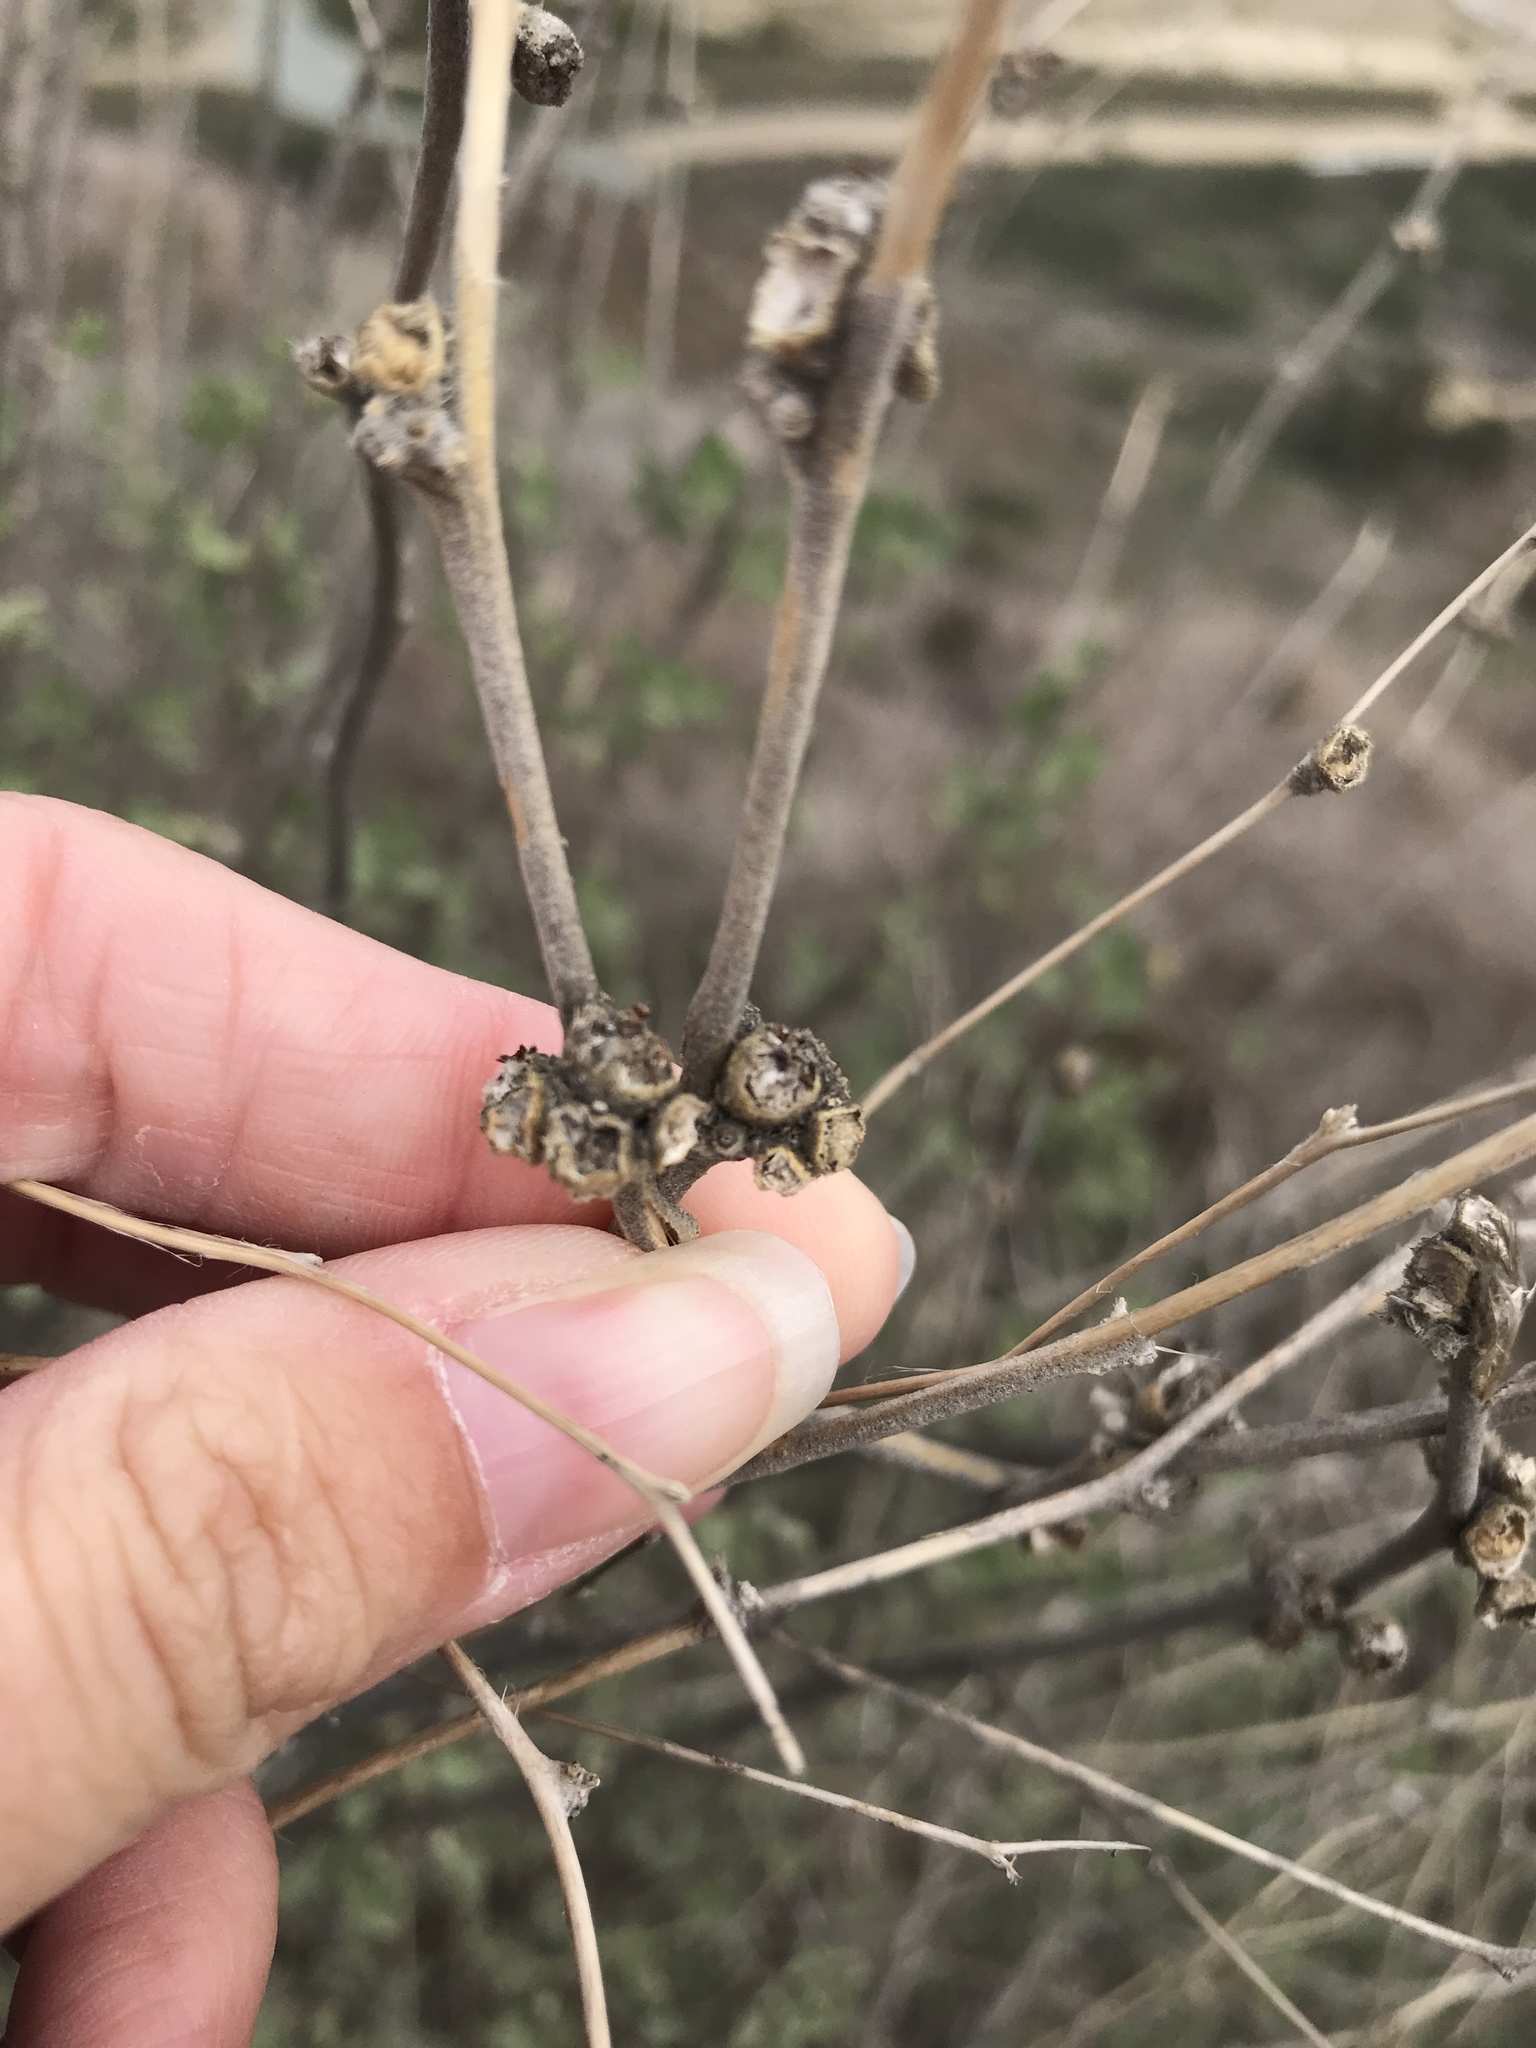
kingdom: Plantae
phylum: Tracheophyta
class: Magnoliopsida
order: Malvales
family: Malvaceae
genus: Malacothamnus
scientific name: Malacothamnus fasciculatus
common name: Sant cruz island bush-mallow
